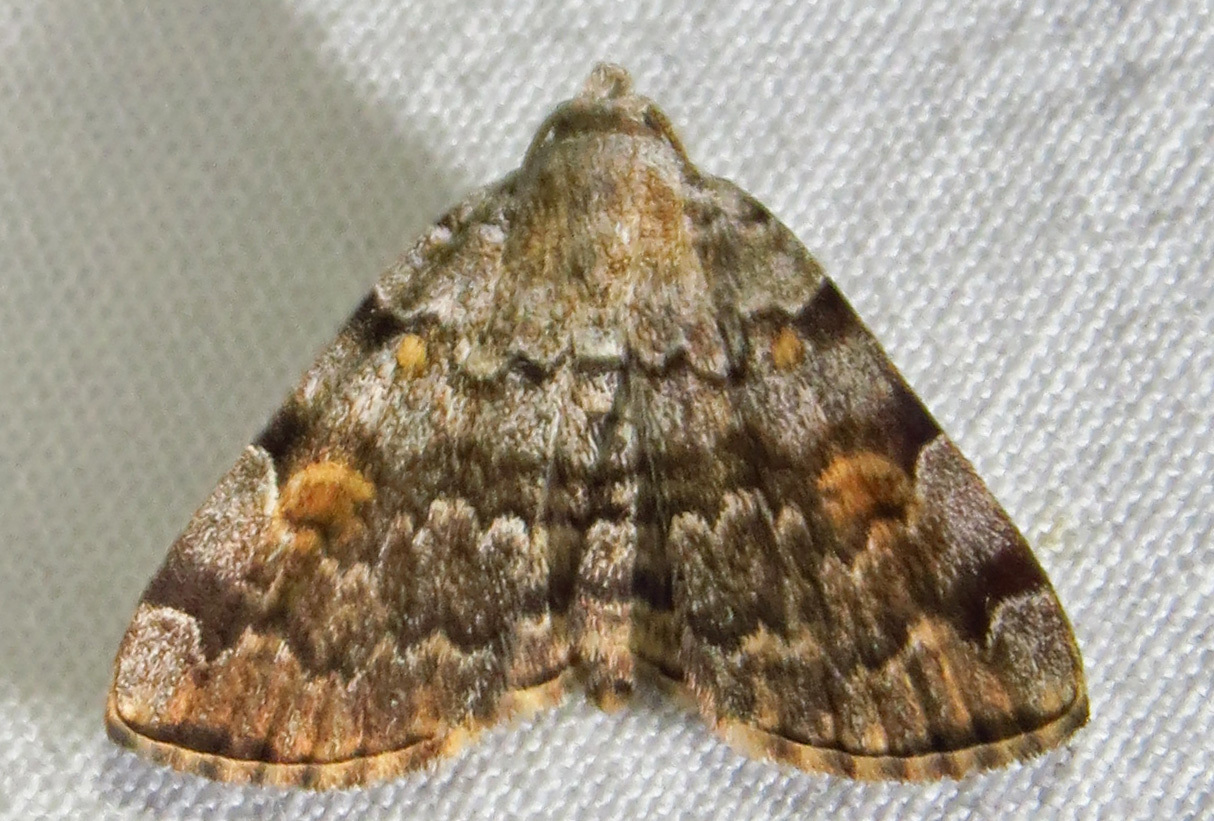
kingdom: Animalia
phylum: Arthropoda
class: Insecta
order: Lepidoptera
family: Erebidae
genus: Idia
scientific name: Idia americalis
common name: American idia moth
